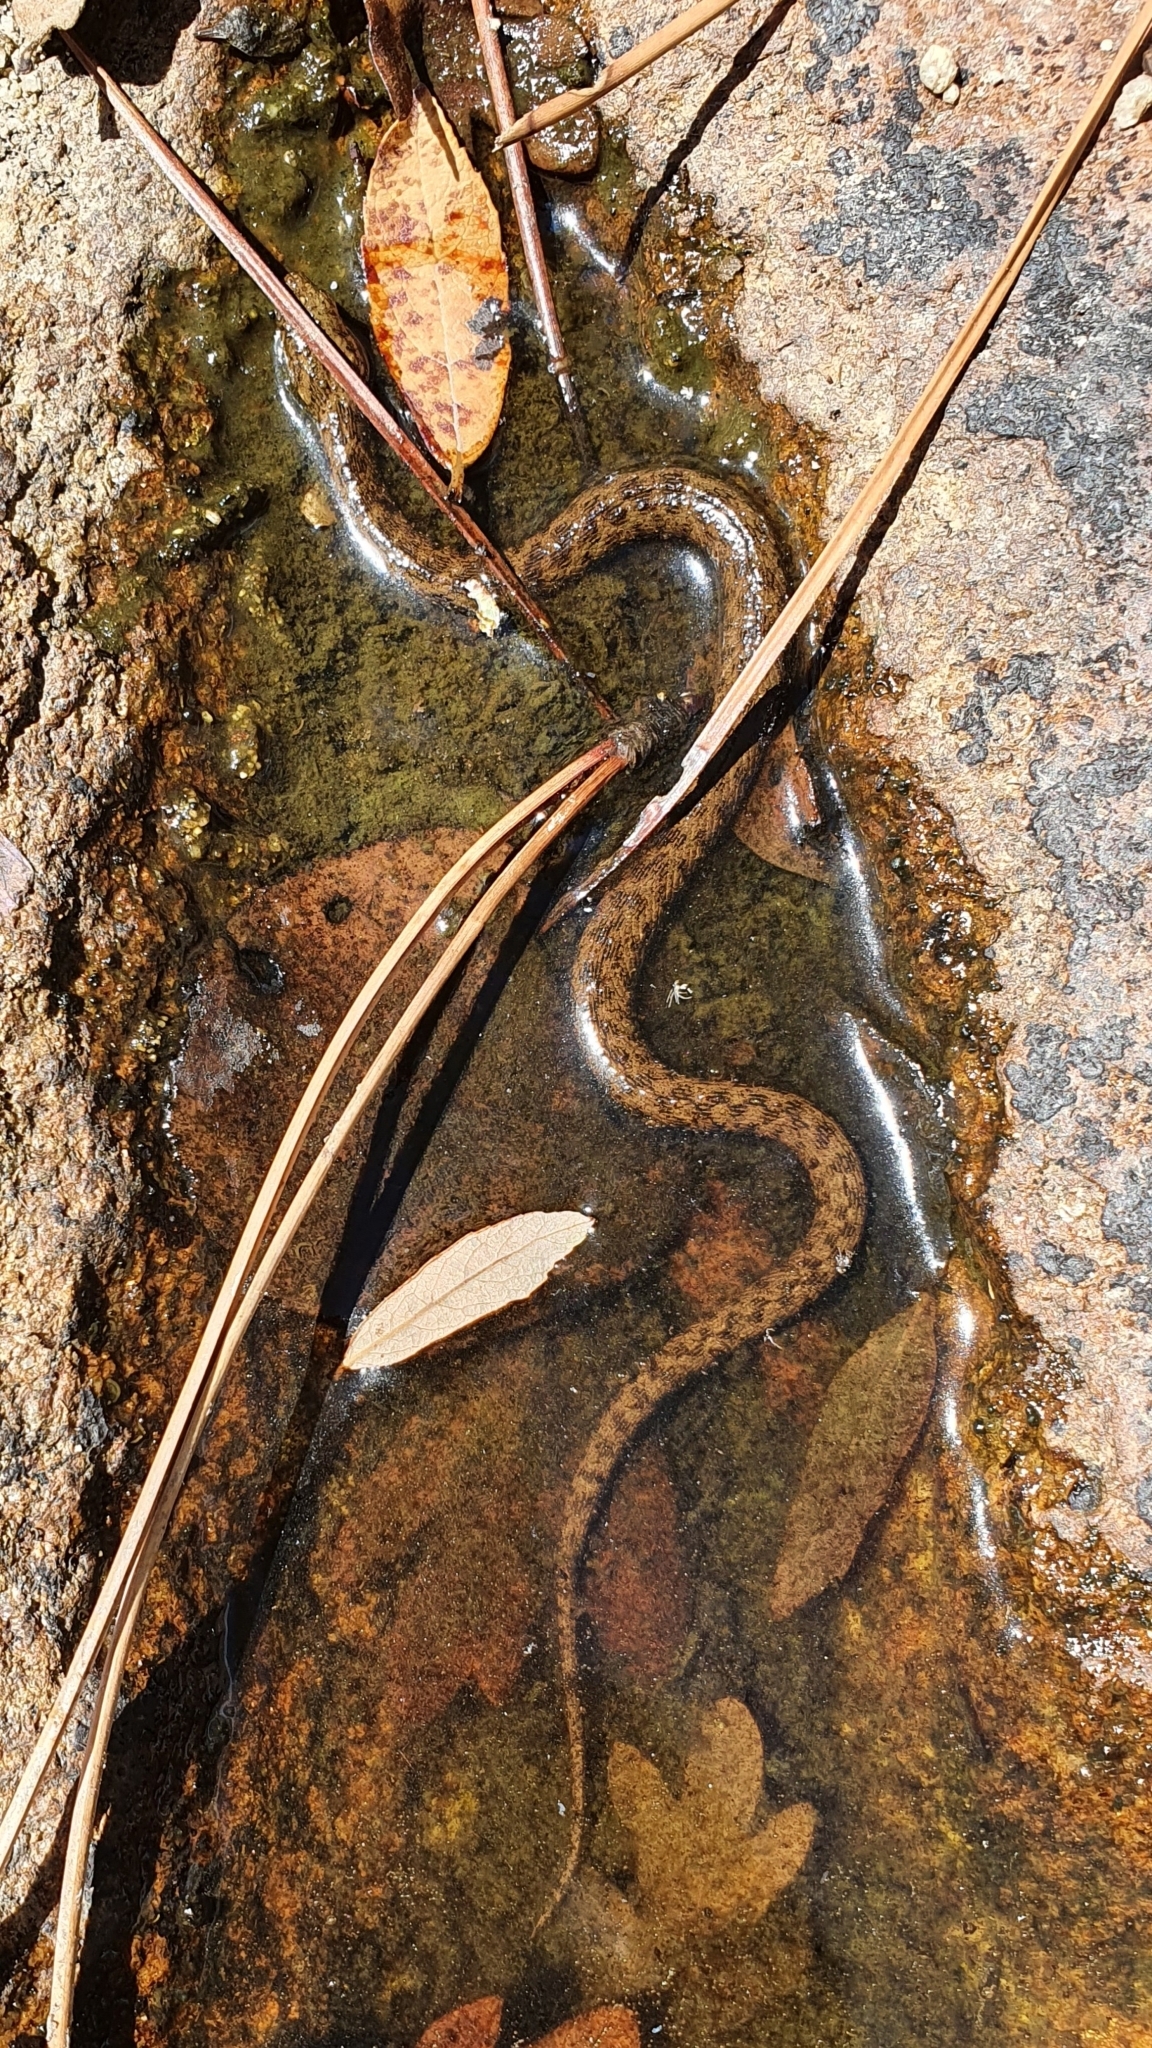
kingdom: Animalia
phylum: Chordata
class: Squamata
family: Colubridae
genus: Natrix
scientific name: Natrix maura
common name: Viperine water snake
